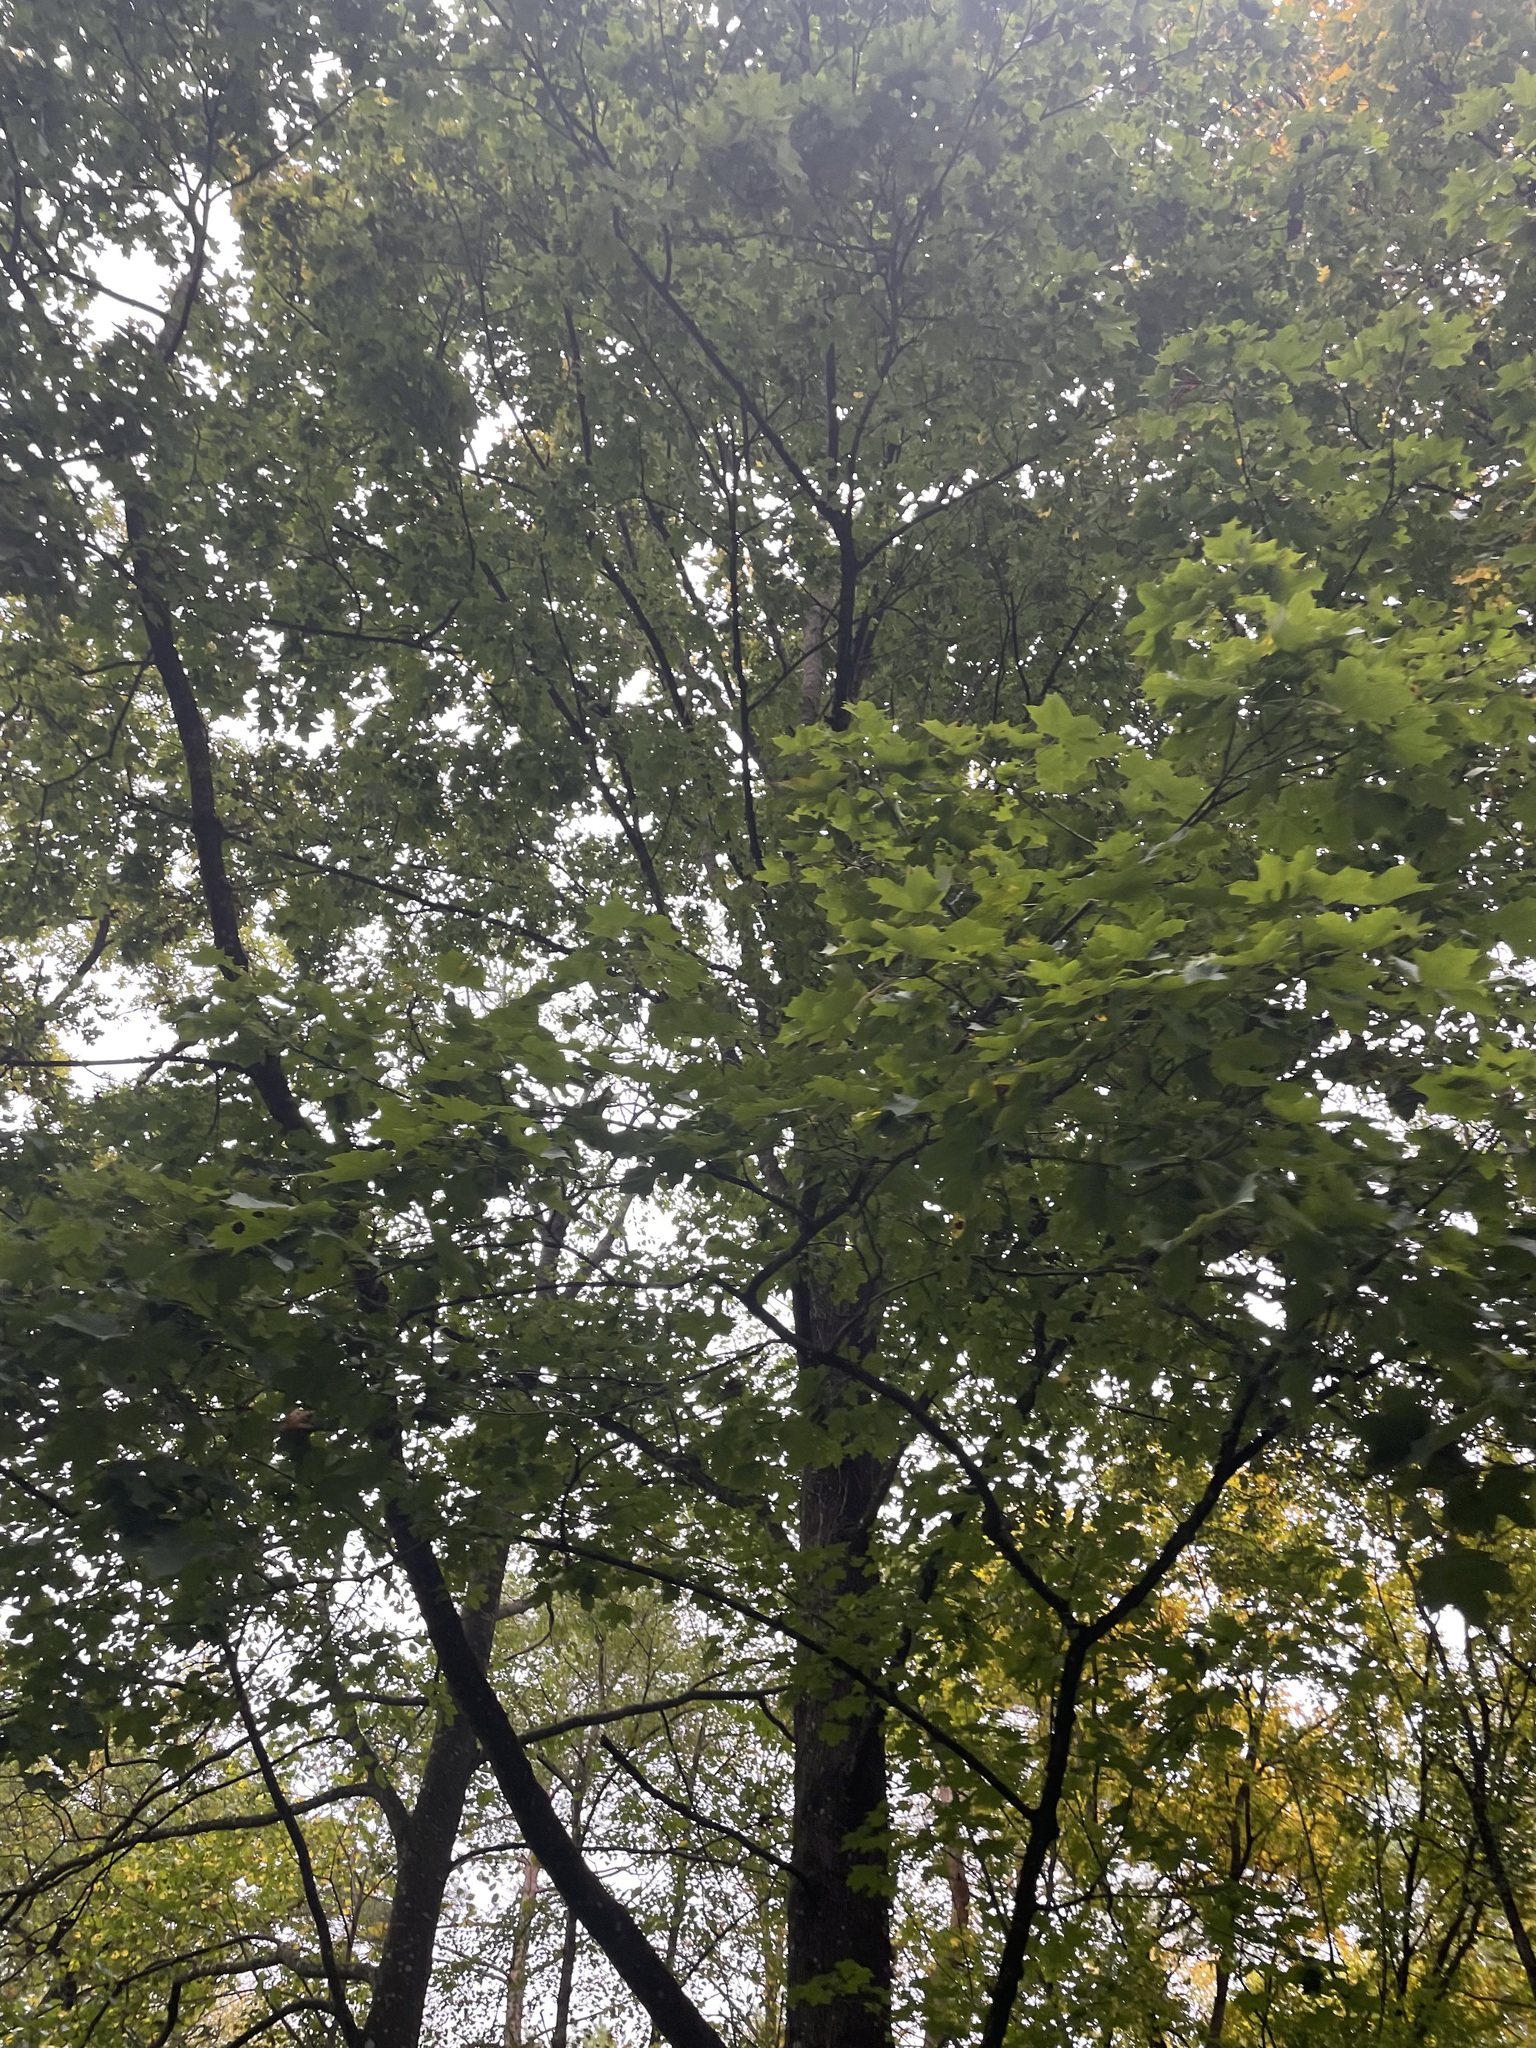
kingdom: Plantae
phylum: Tracheophyta
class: Magnoliopsida
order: Sapindales
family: Sapindaceae
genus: Acer
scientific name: Acer platanoides
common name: Norway maple
